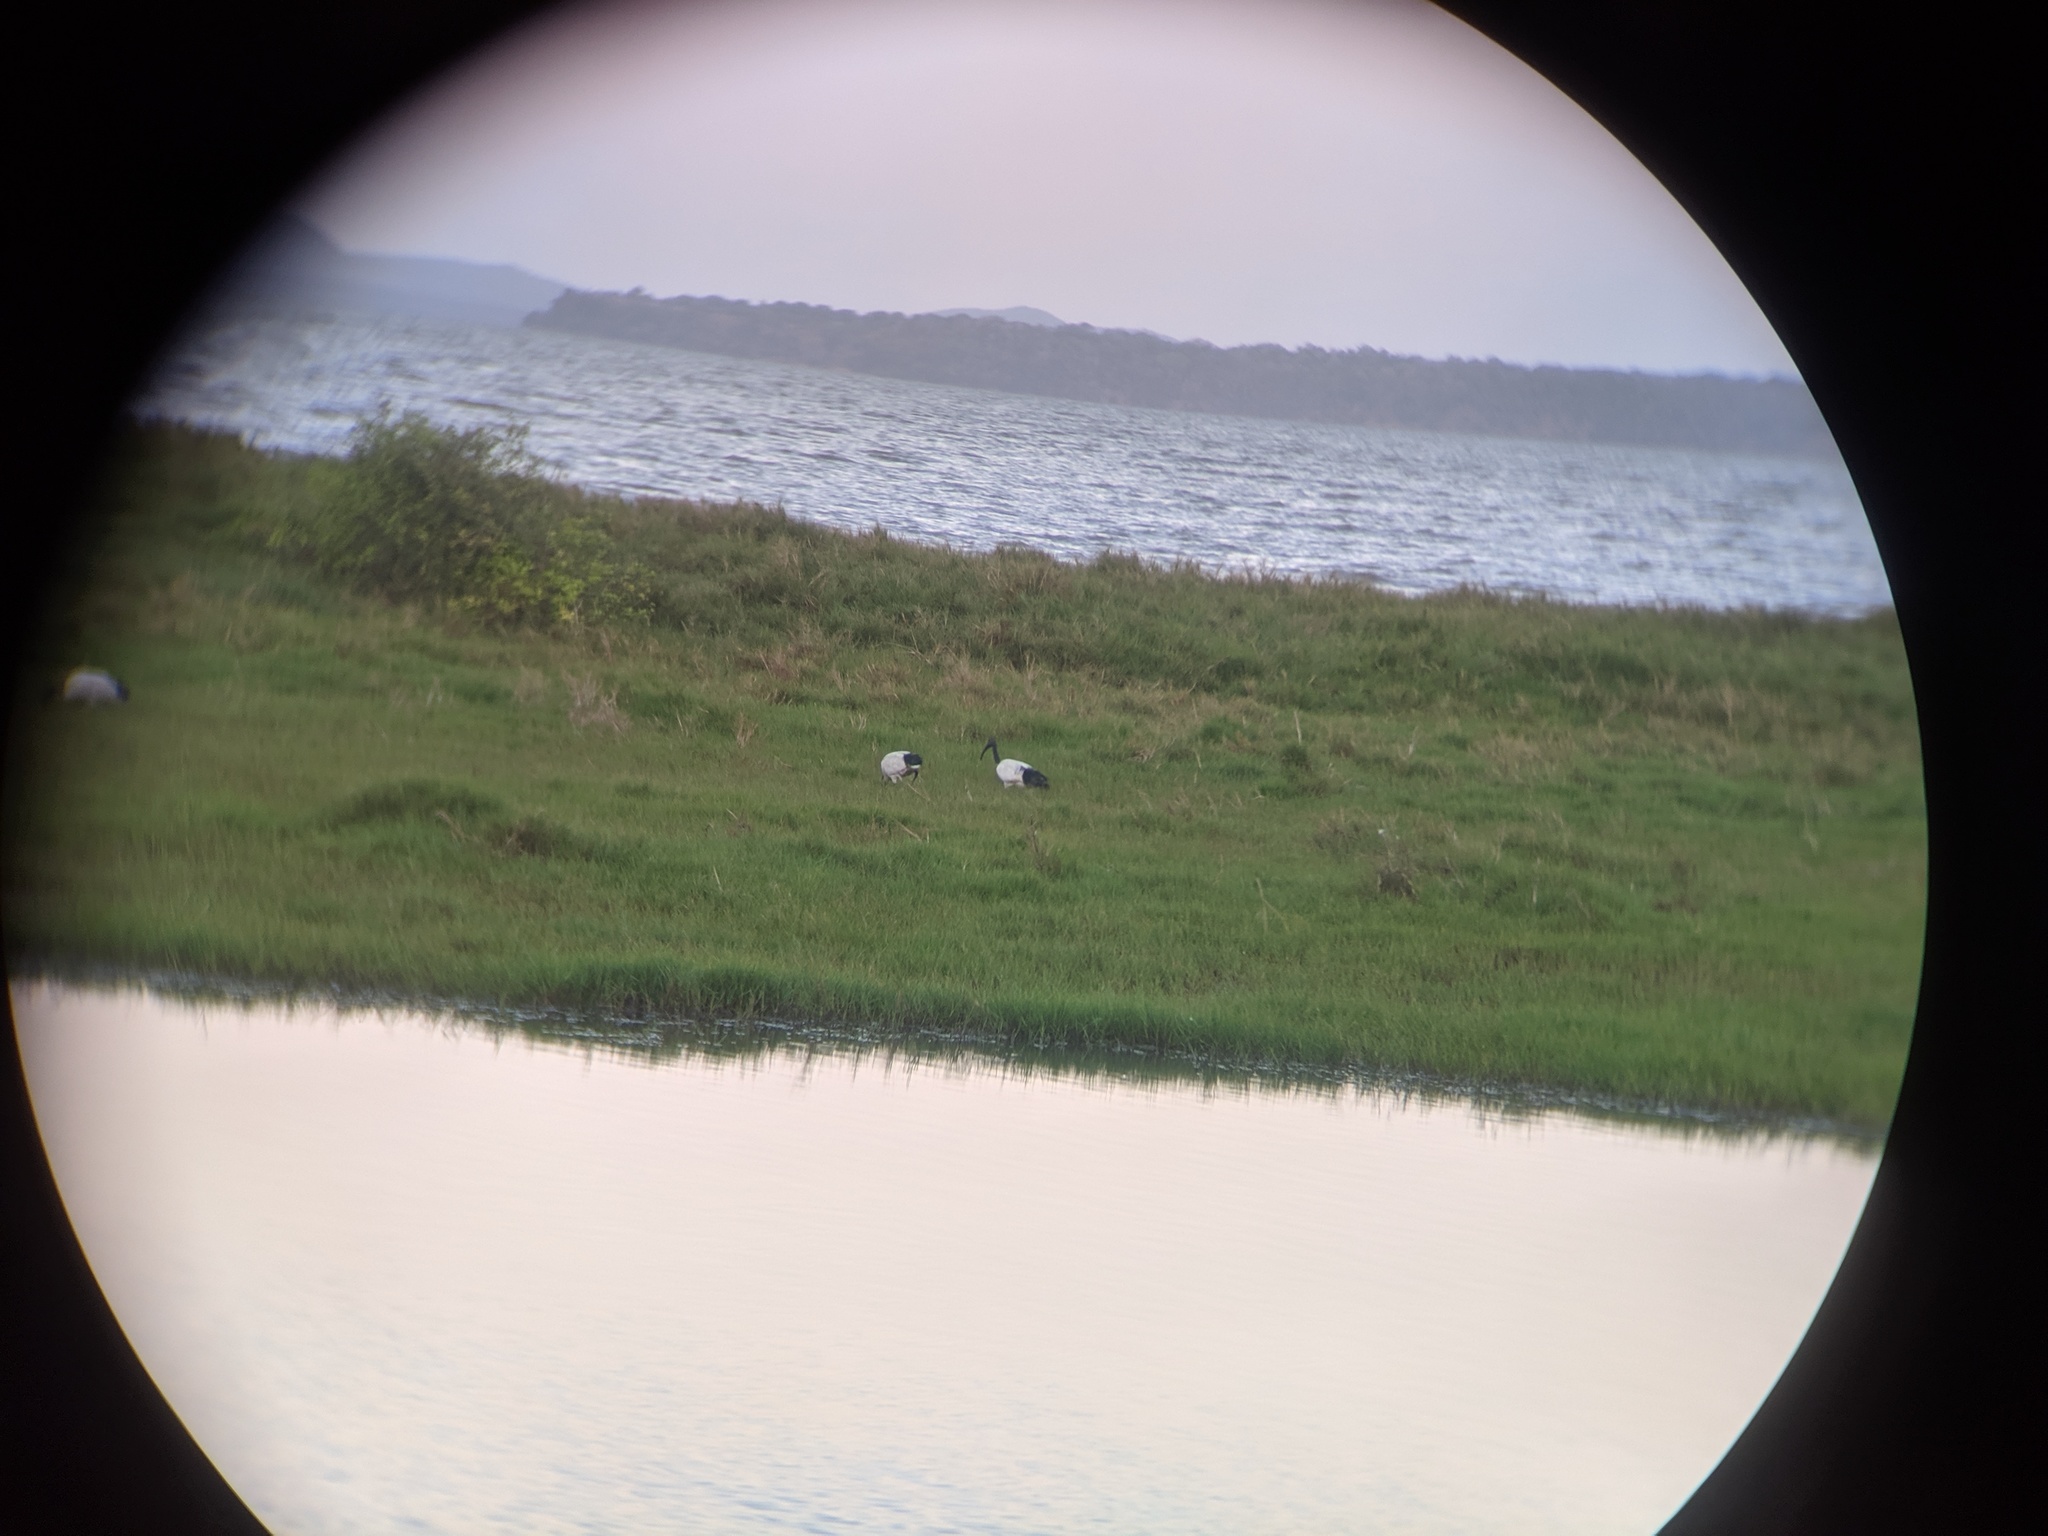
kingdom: Animalia
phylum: Chordata
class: Aves
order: Pelecaniformes
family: Threskiornithidae
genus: Threskiornis
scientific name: Threskiornis aethiopicus
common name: Sacred ibis
